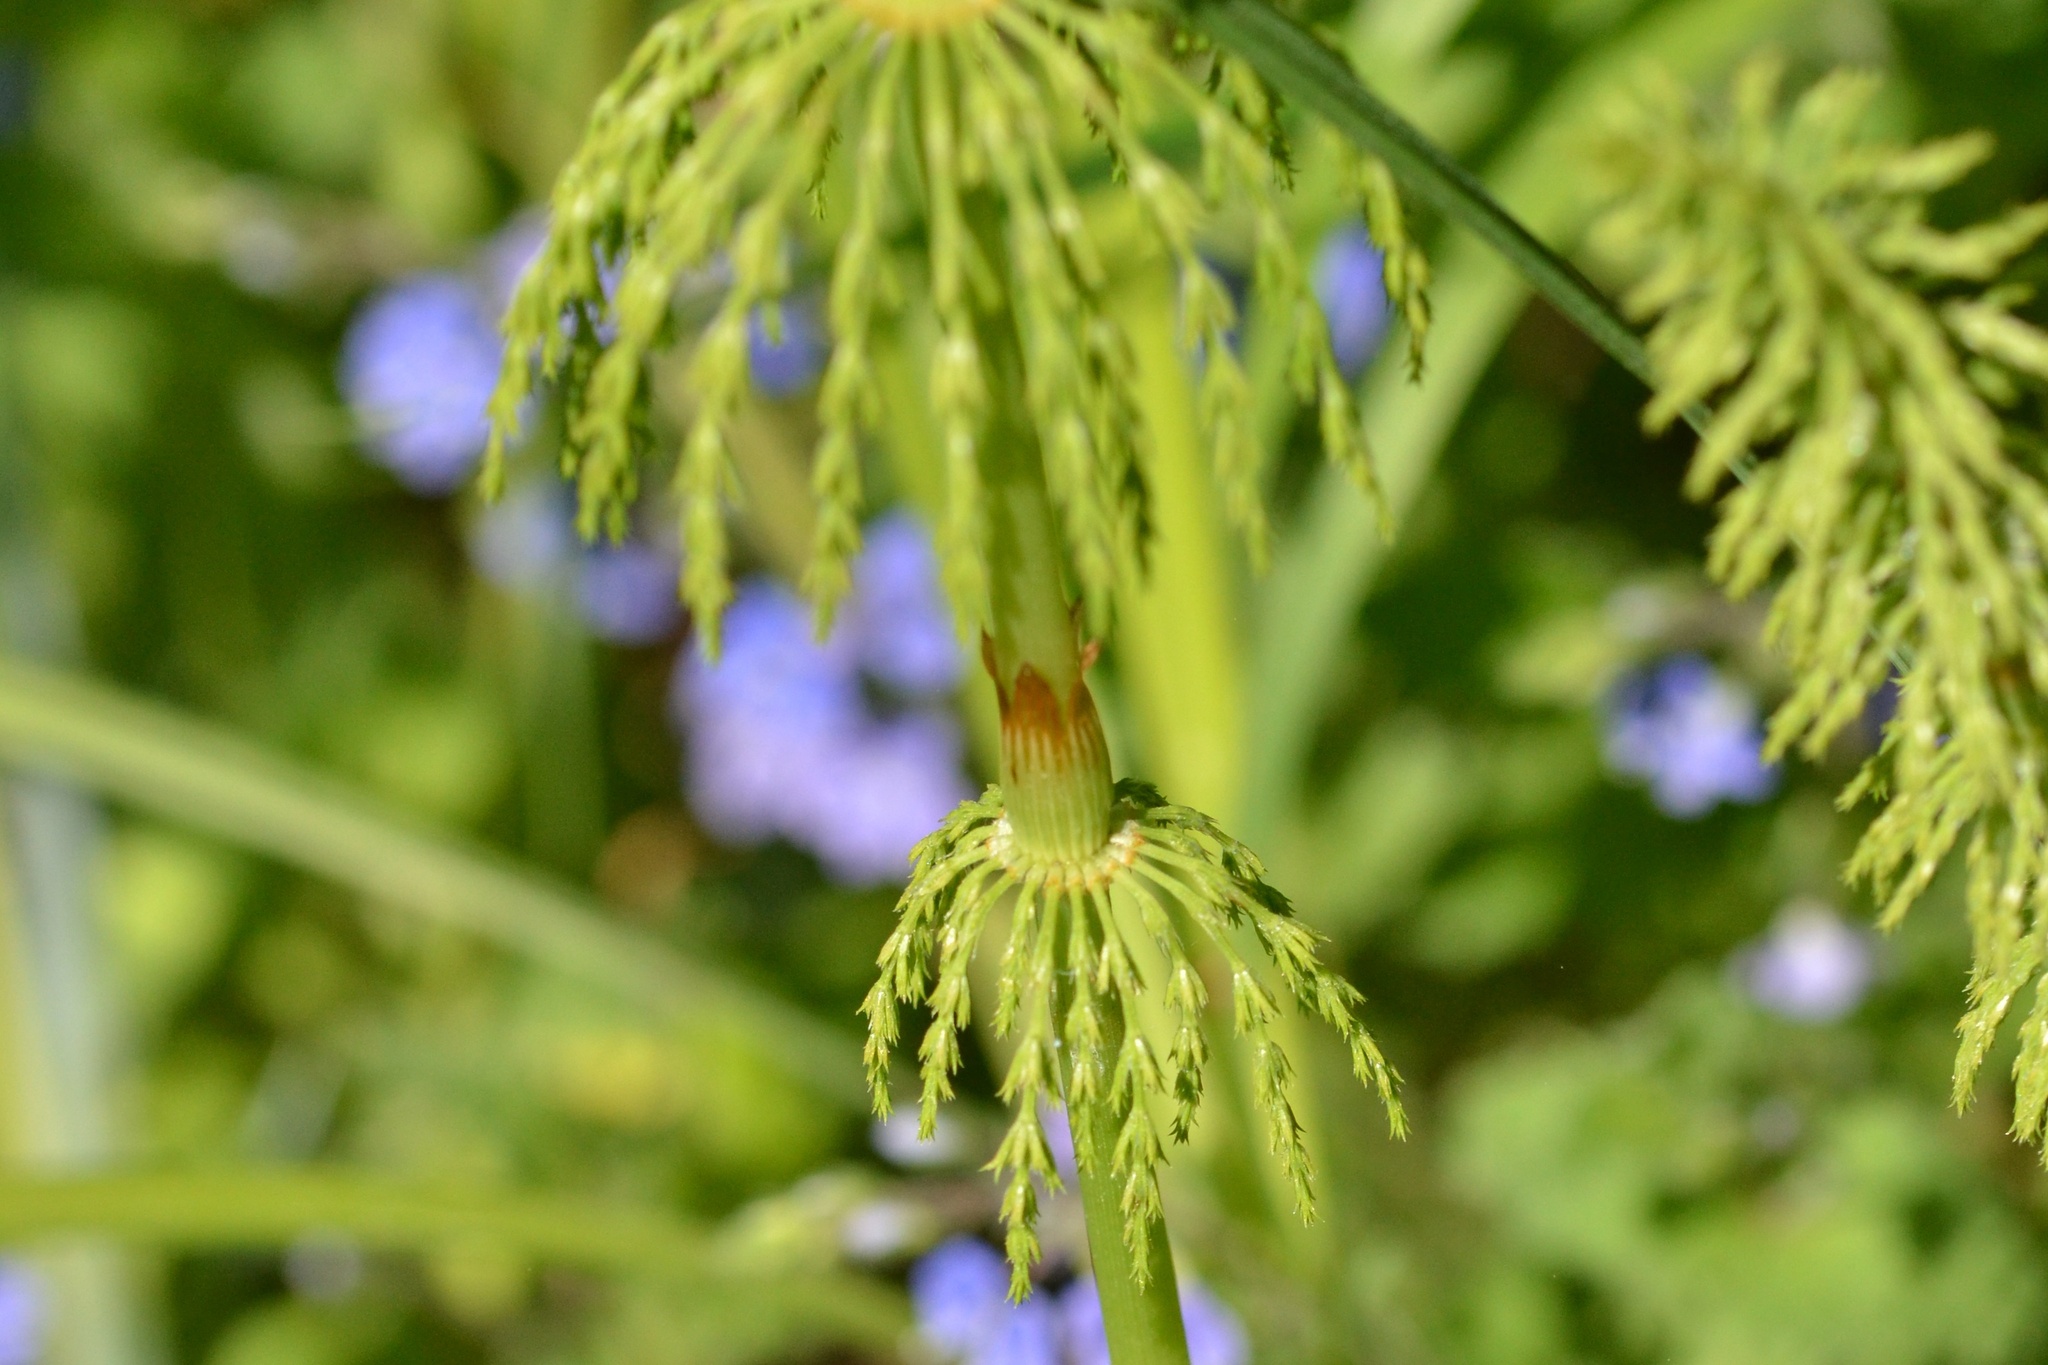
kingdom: Plantae
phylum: Tracheophyta
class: Polypodiopsida
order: Equisetales
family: Equisetaceae
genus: Equisetum
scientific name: Equisetum sylvaticum
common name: Wood horsetail
